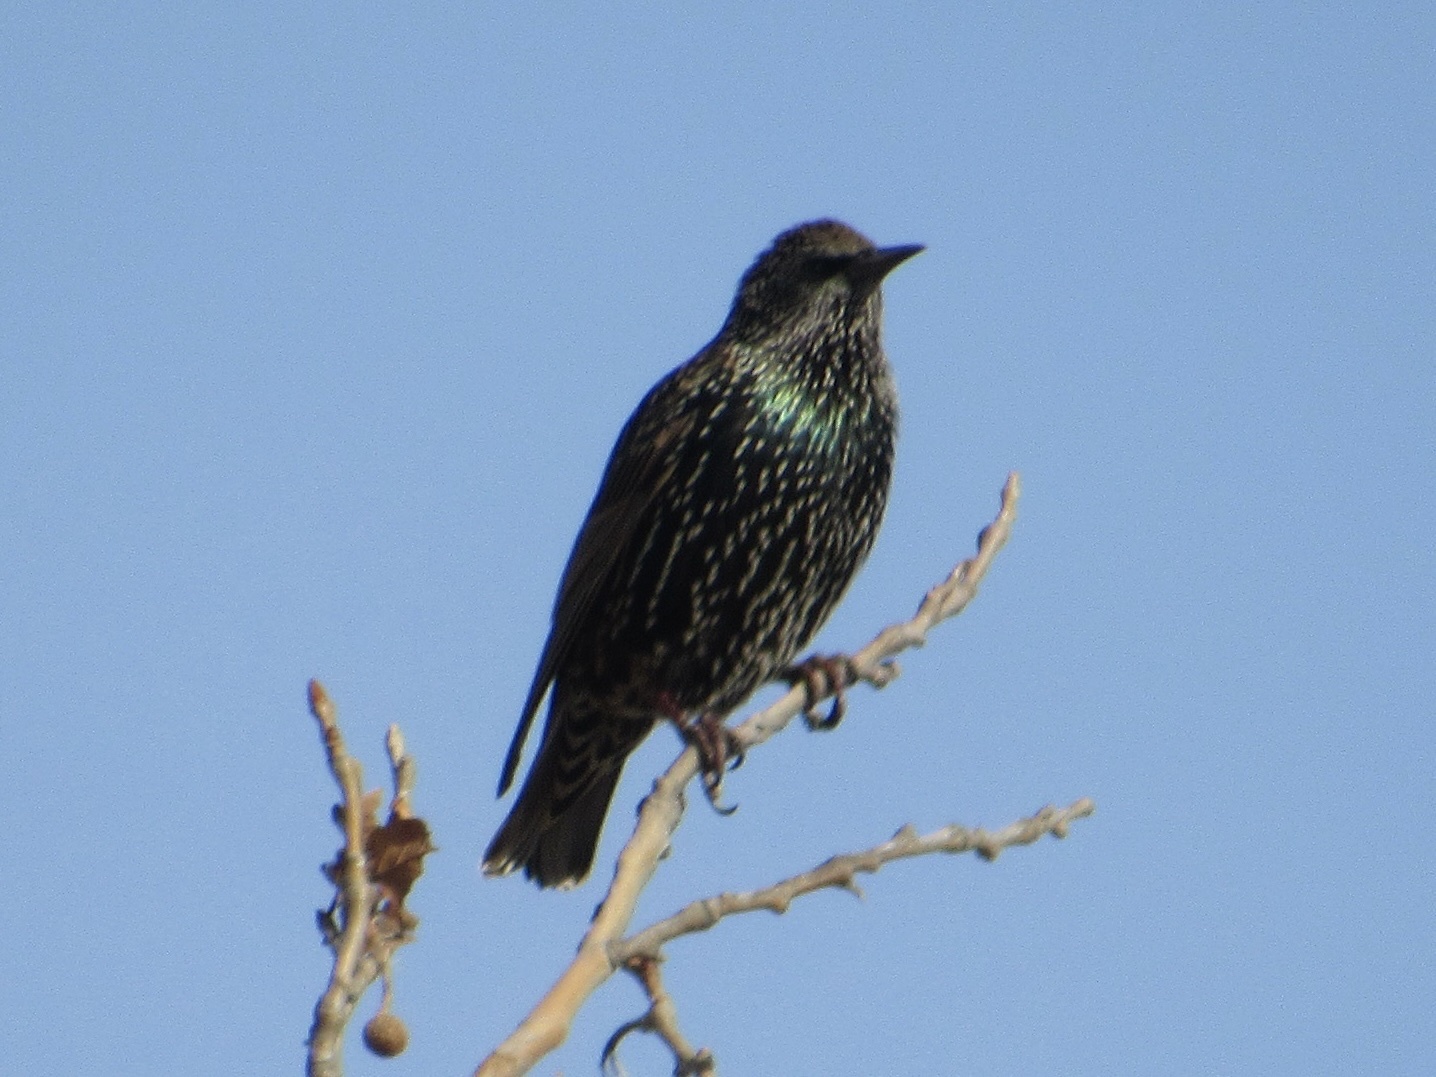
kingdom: Animalia
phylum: Chordata
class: Aves
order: Passeriformes
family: Sturnidae
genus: Sturnus
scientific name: Sturnus vulgaris
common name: Common starling
